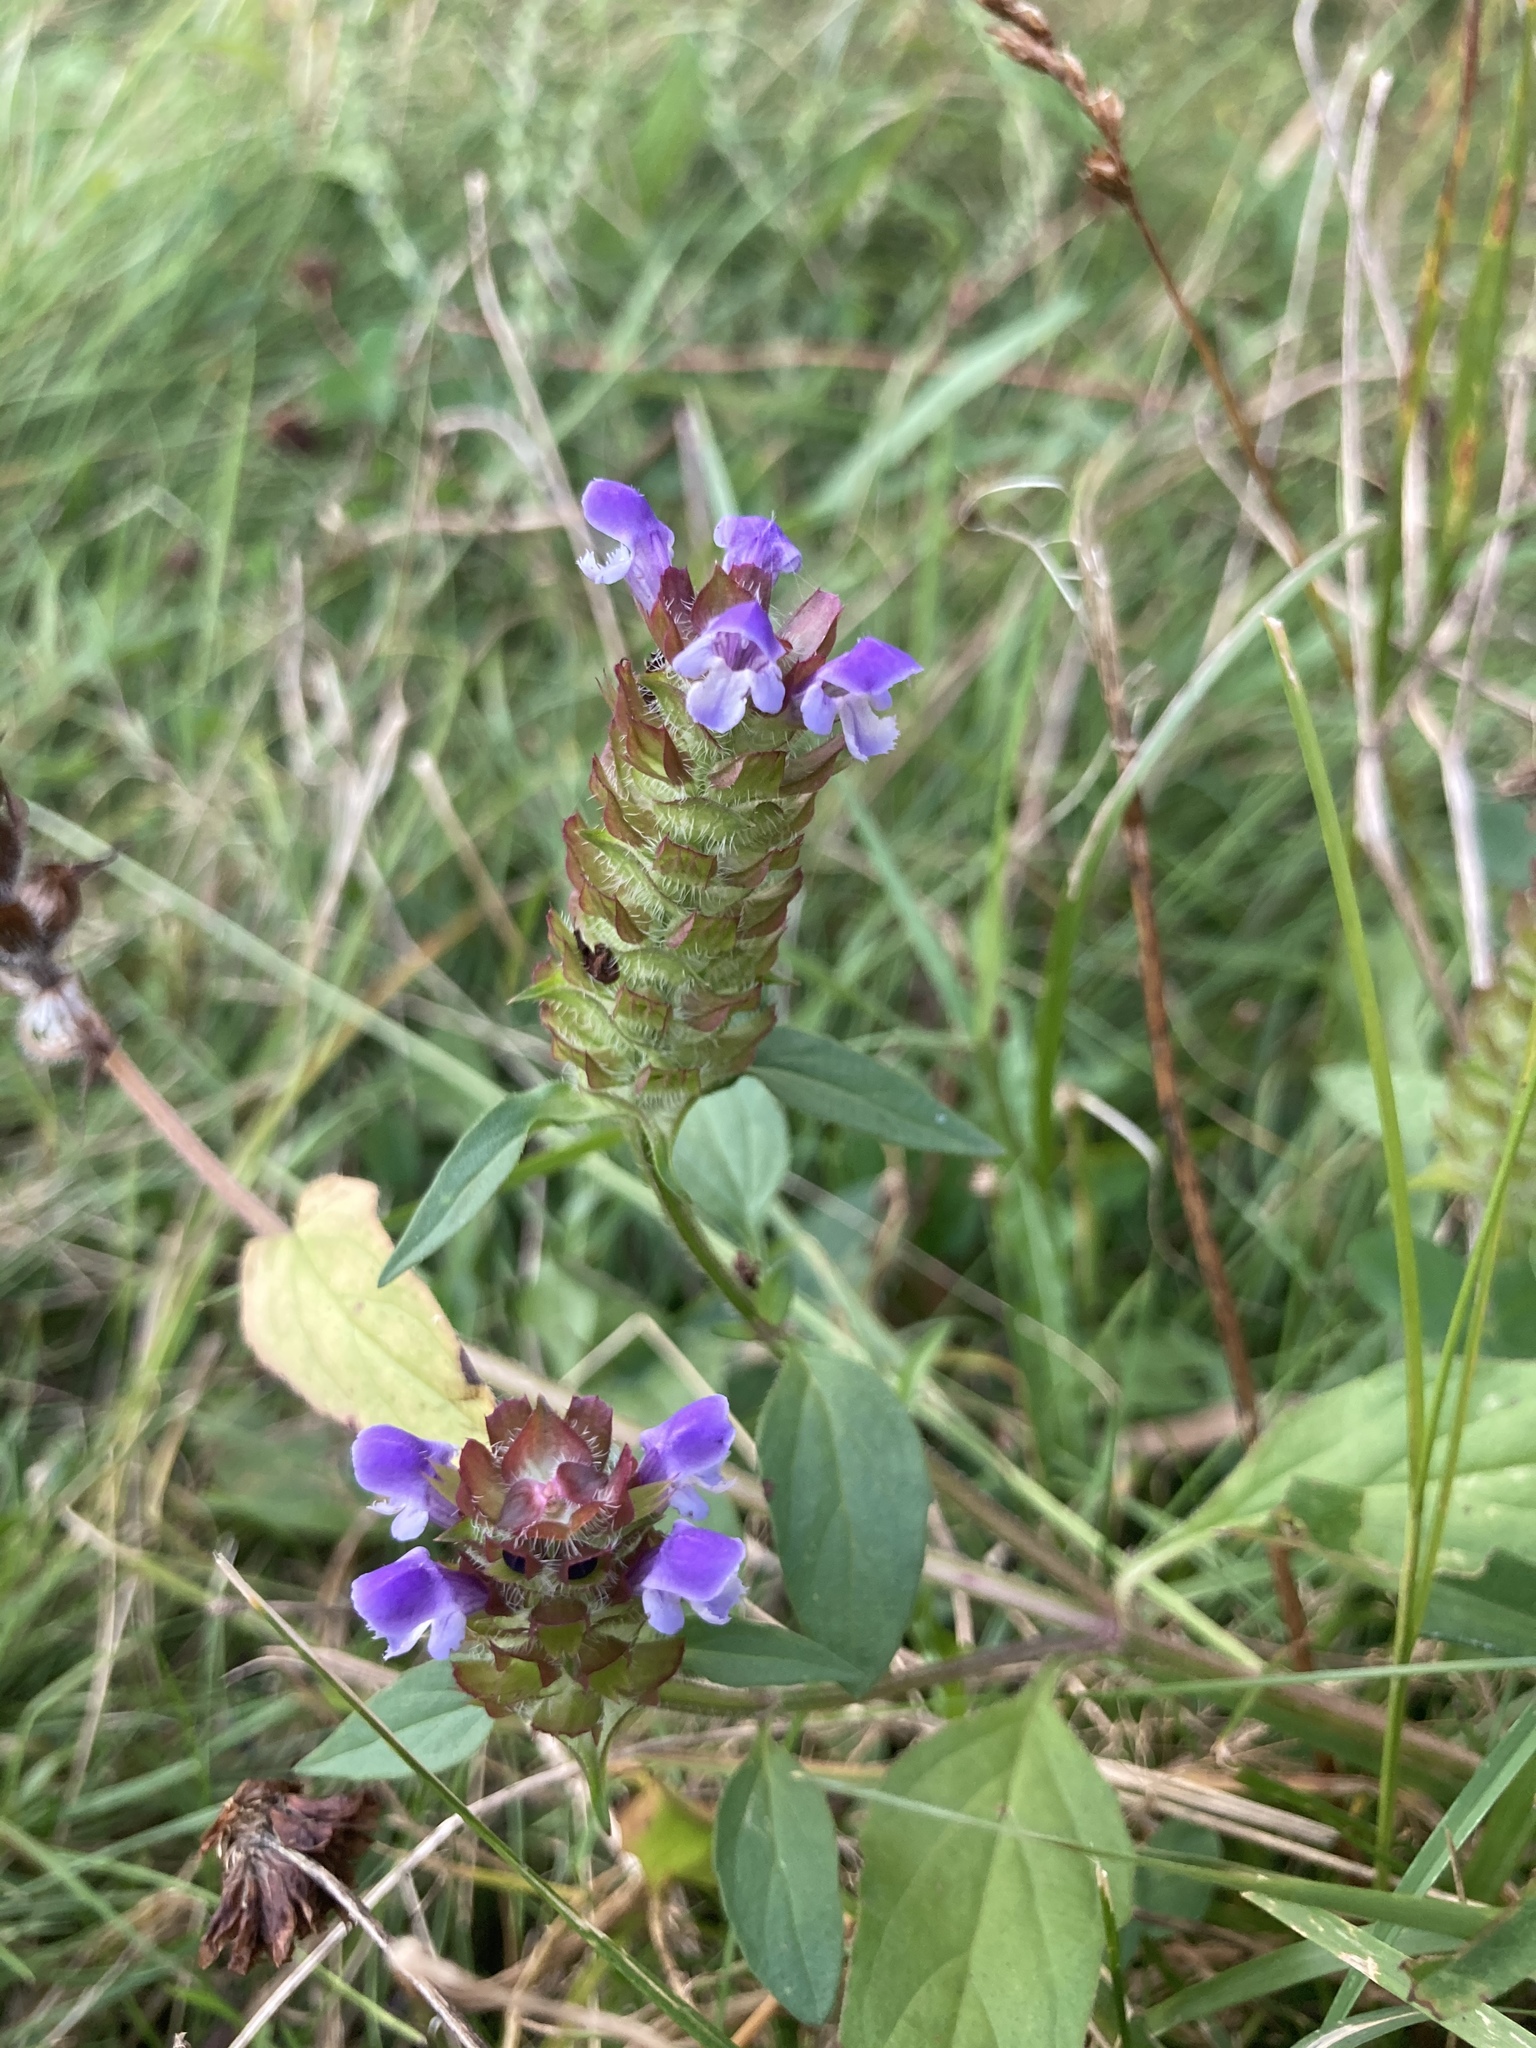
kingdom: Plantae
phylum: Tracheophyta
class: Magnoliopsida
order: Lamiales
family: Lamiaceae
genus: Prunella
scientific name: Prunella vulgaris
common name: Heal-all
